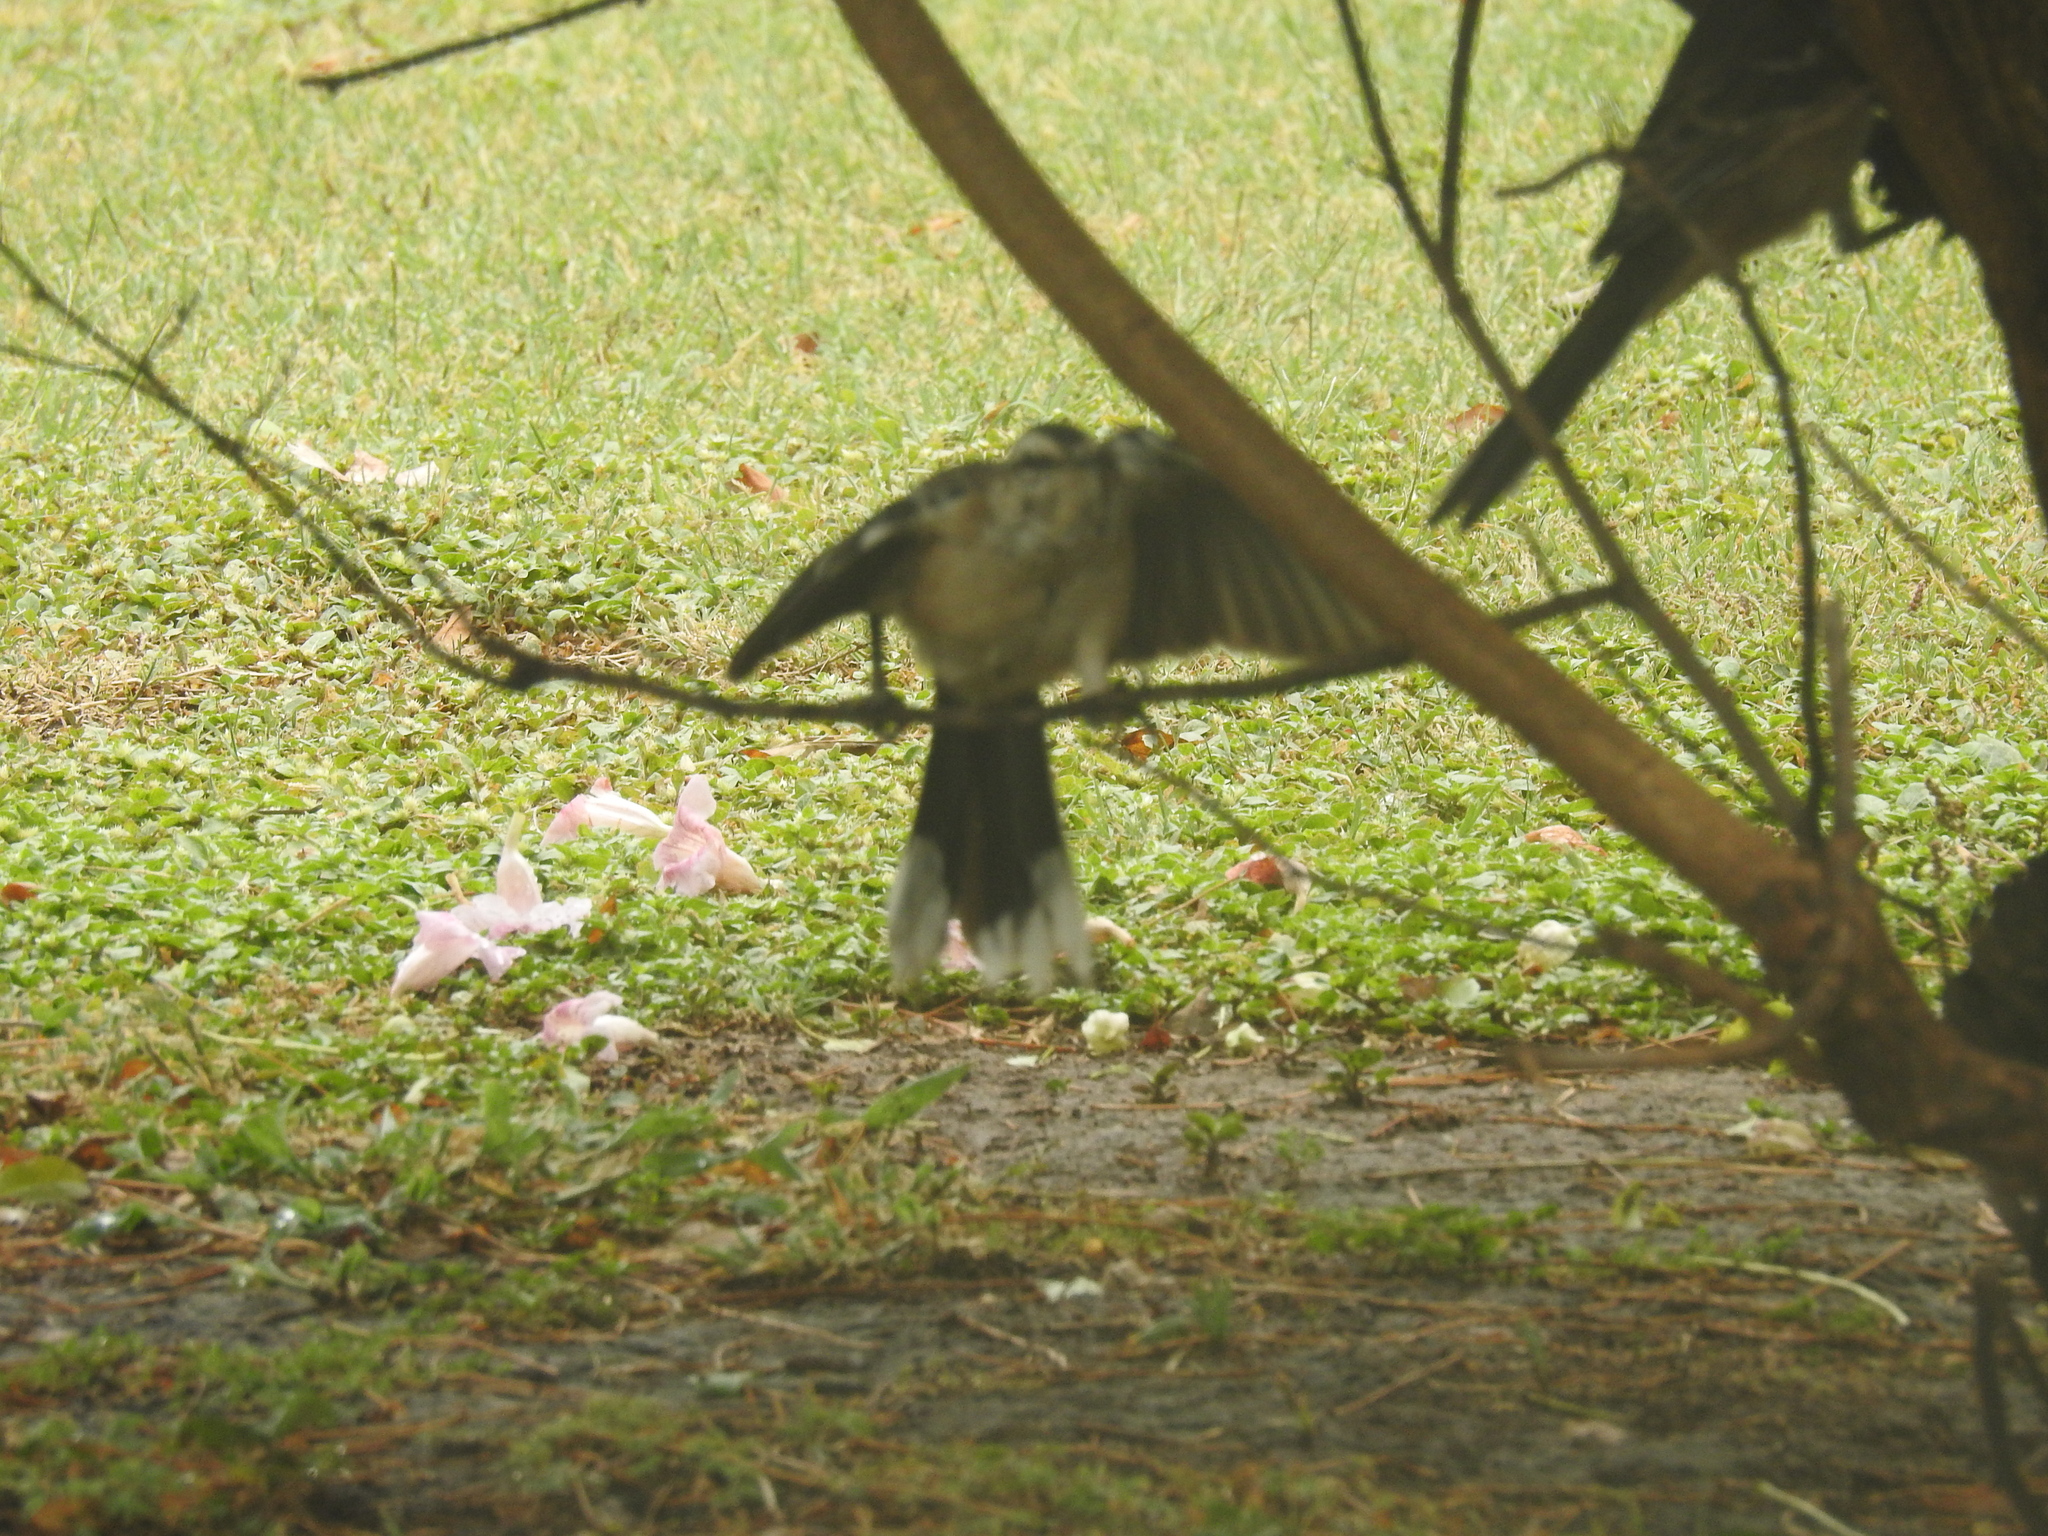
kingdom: Animalia
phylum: Chordata
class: Aves
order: Passeriformes
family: Mimidae
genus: Mimus
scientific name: Mimus saturninus
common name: Chalk-browed mockingbird
